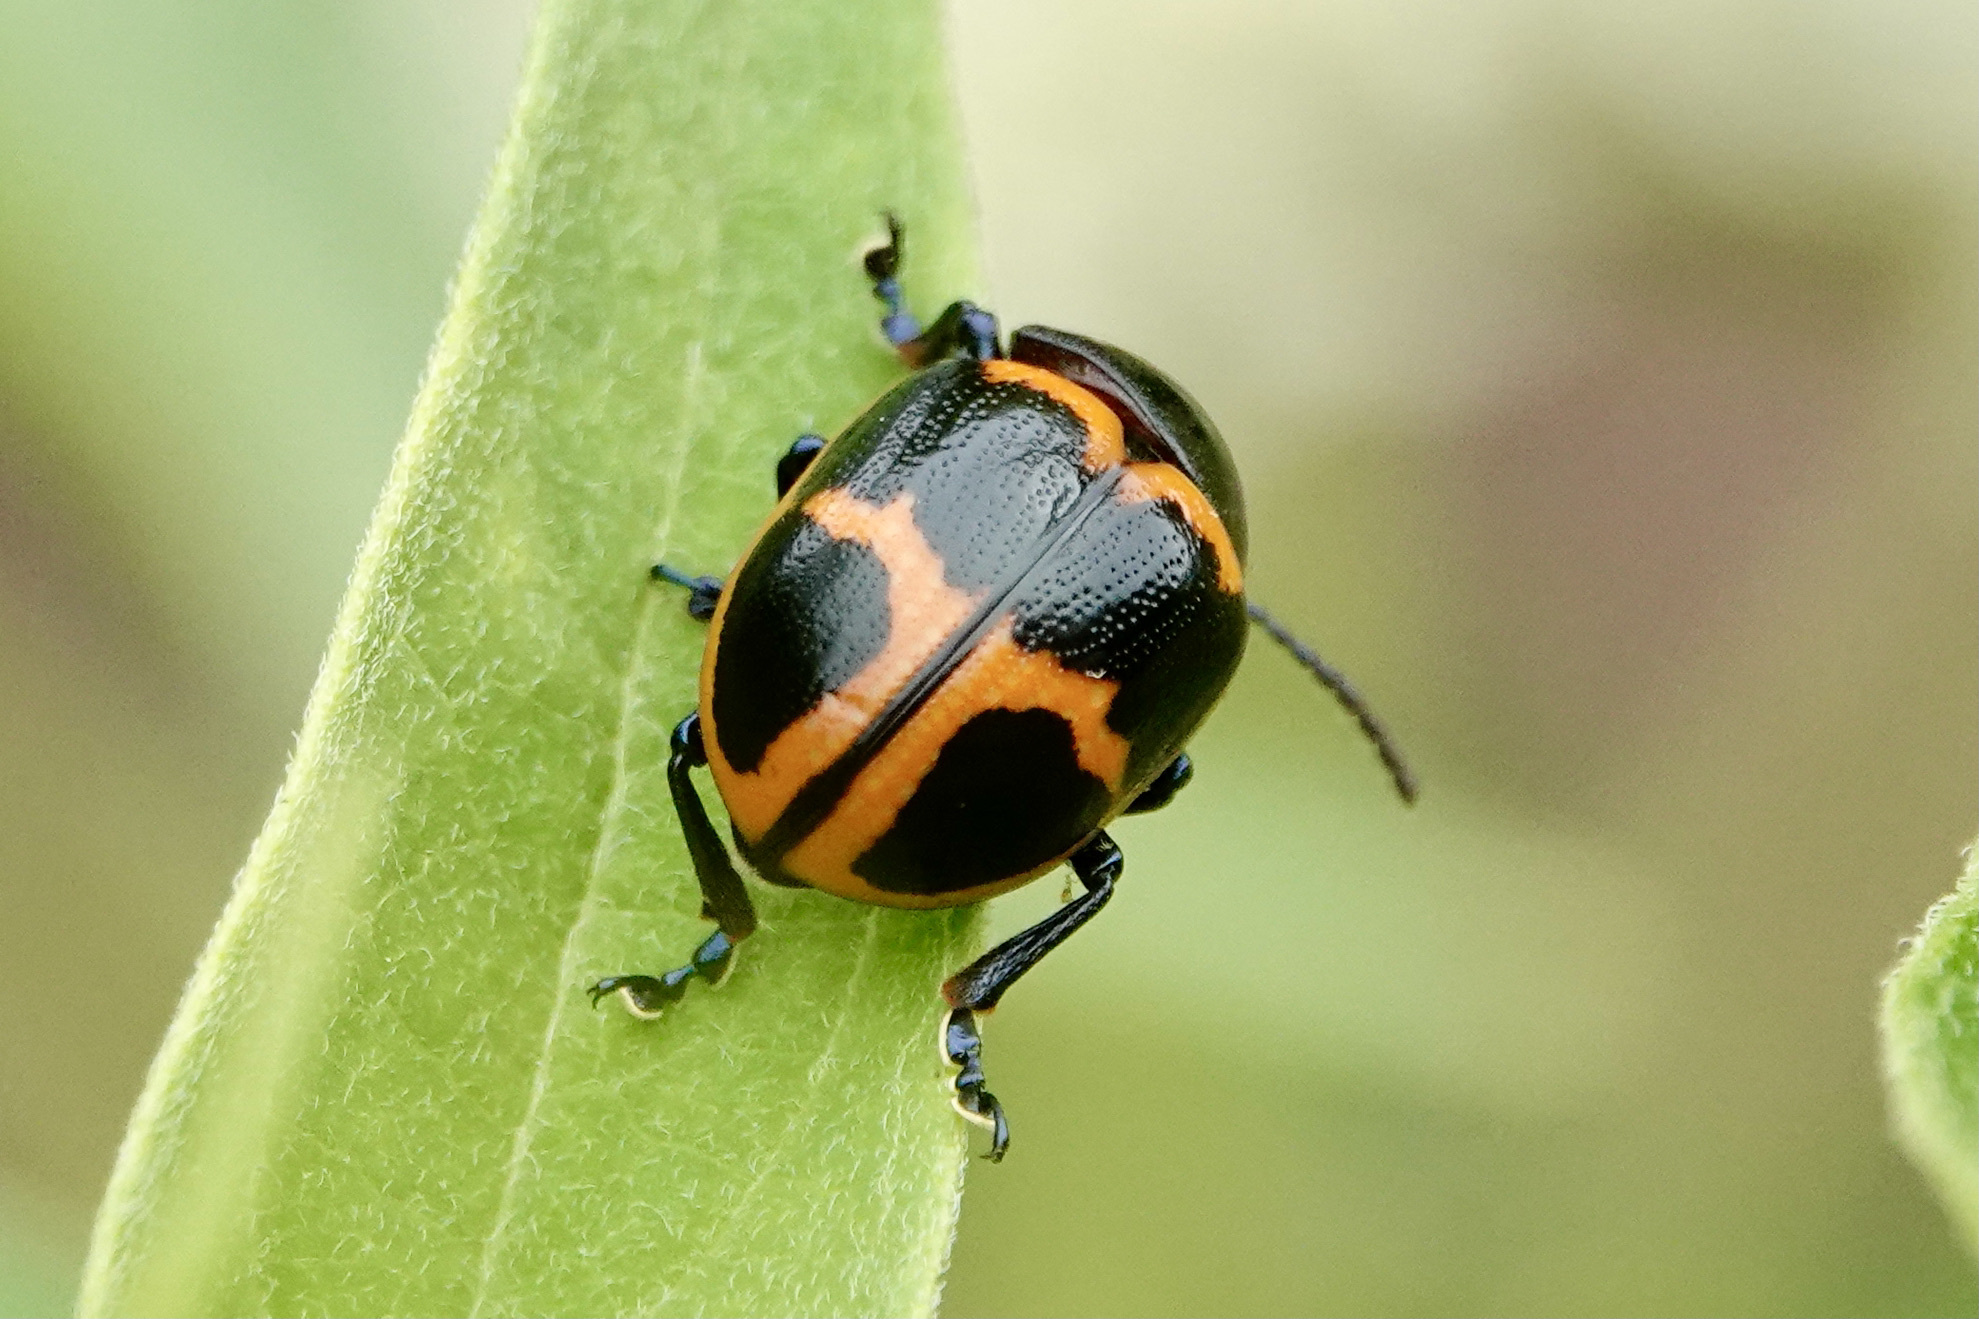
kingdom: Animalia
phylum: Arthropoda
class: Insecta
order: Coleoptera
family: Chrysomelidae
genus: Labidomera
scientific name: Labidomera clivicollis
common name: Swamp milkweed leaf beetle
